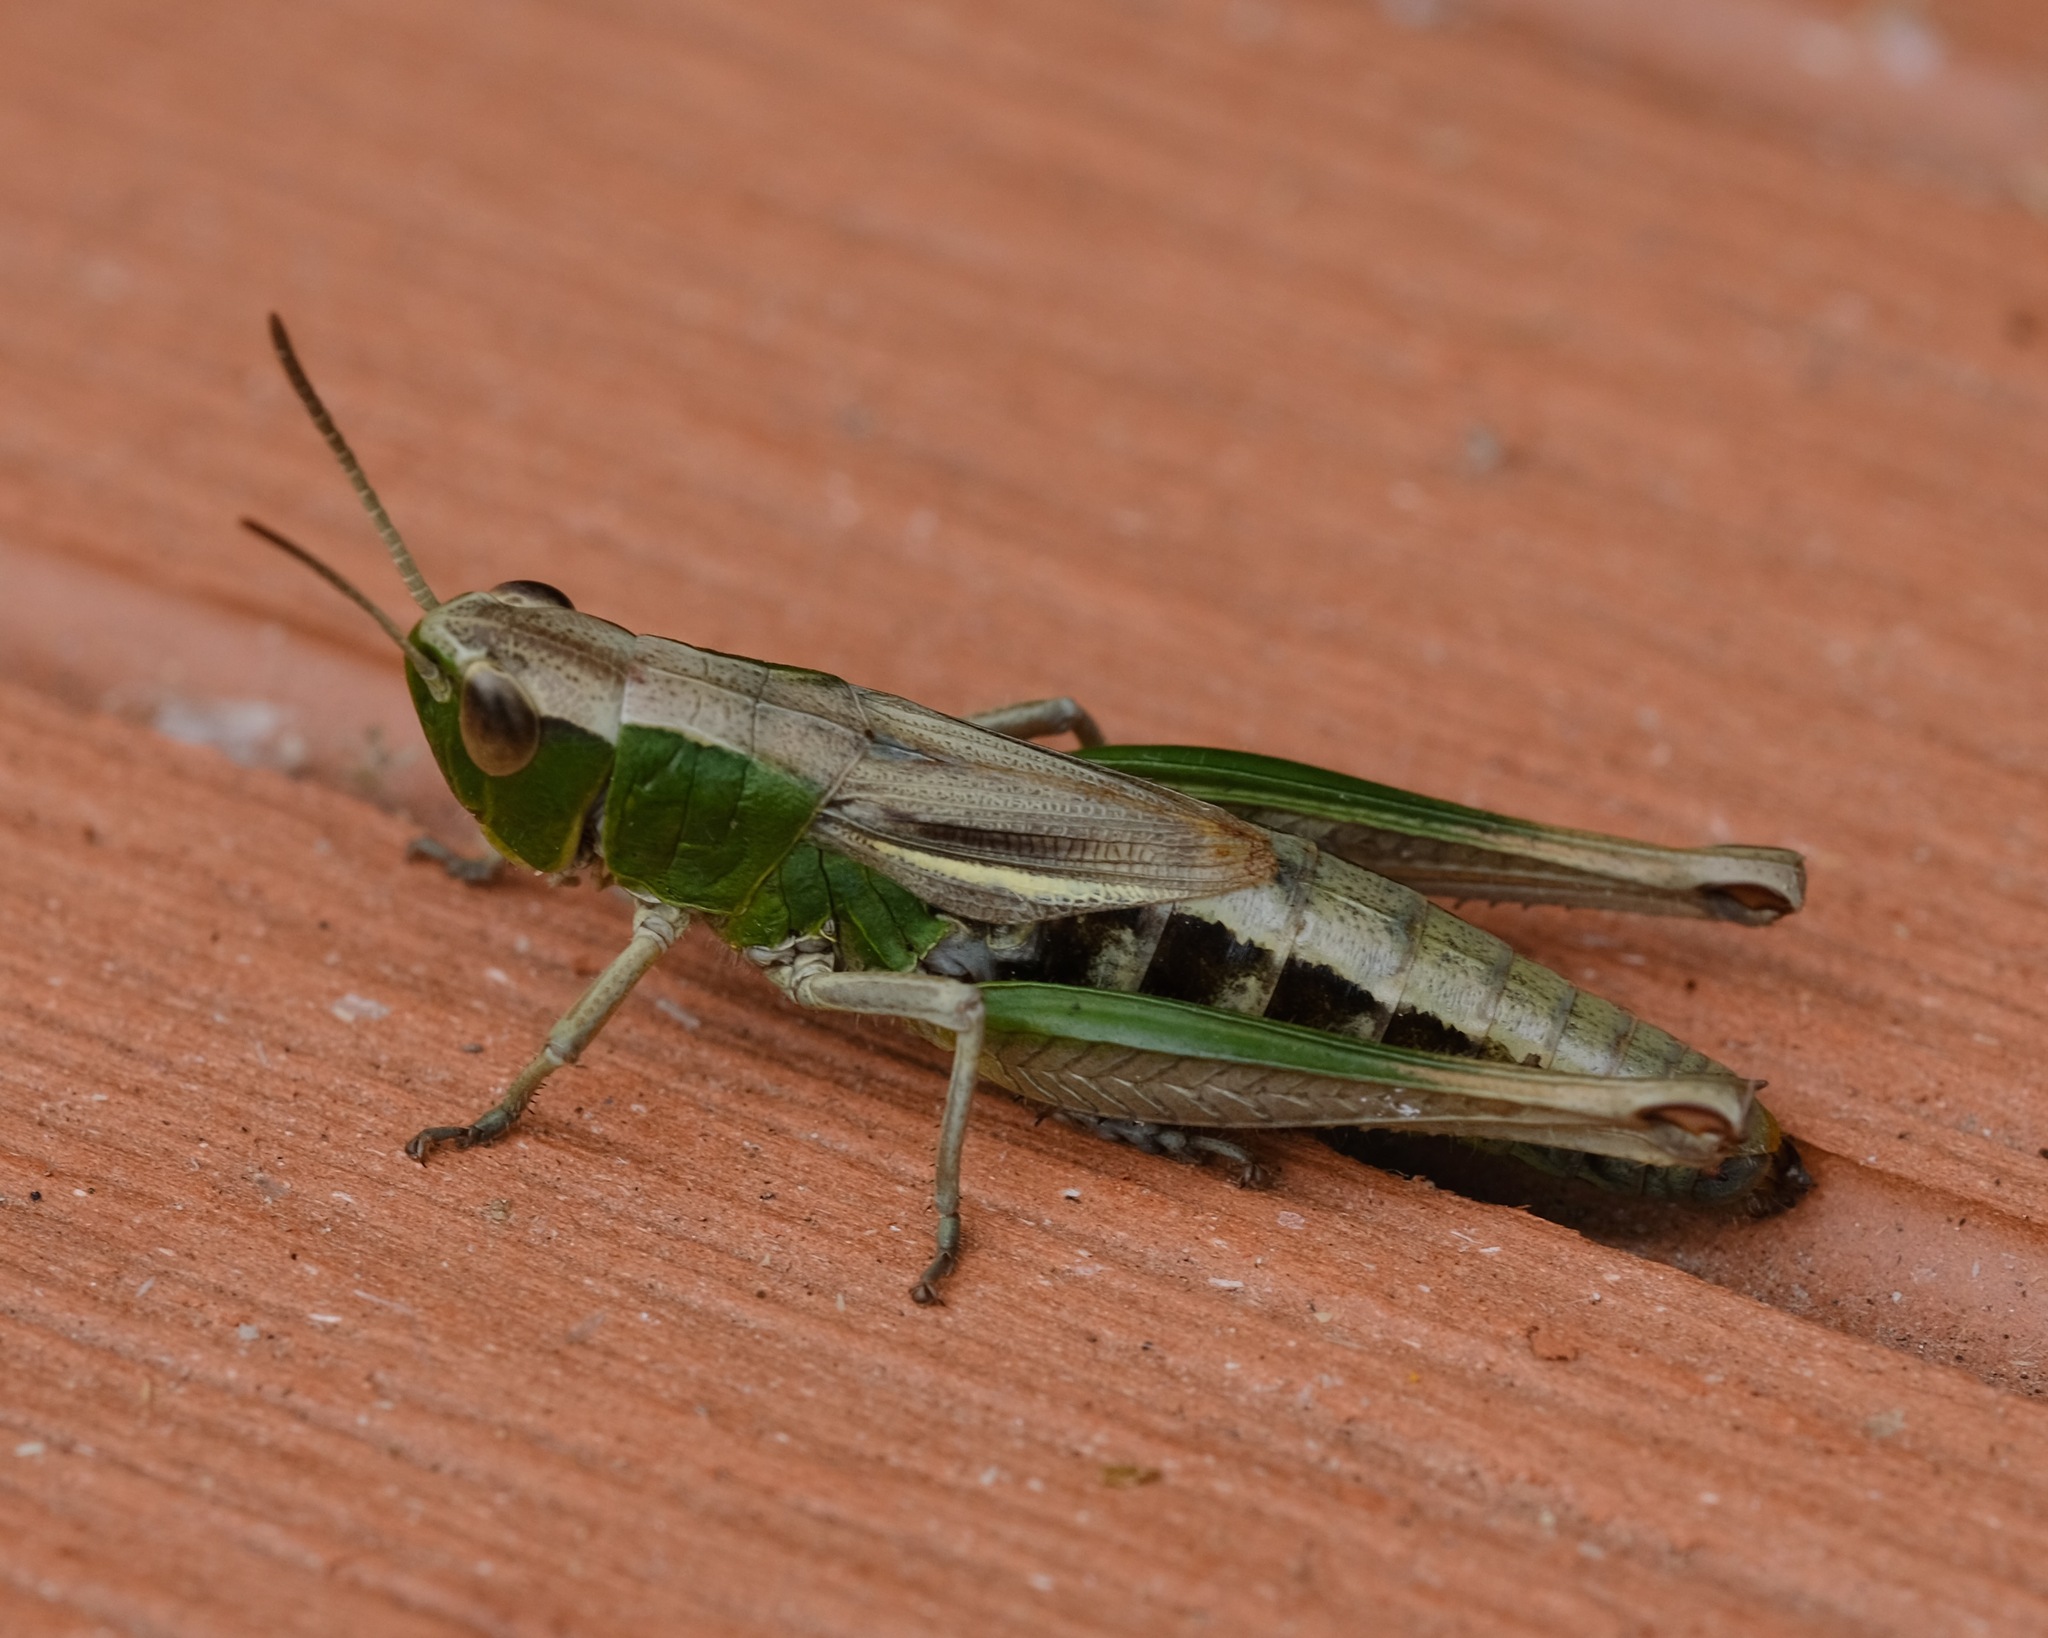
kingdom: Animalia
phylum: Arthropoda
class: Insecta
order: Orthoptera
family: Acrididae
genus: Pseudochorthippus
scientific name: Pseudochorthippus parallelus
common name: Meadow grasshopper
